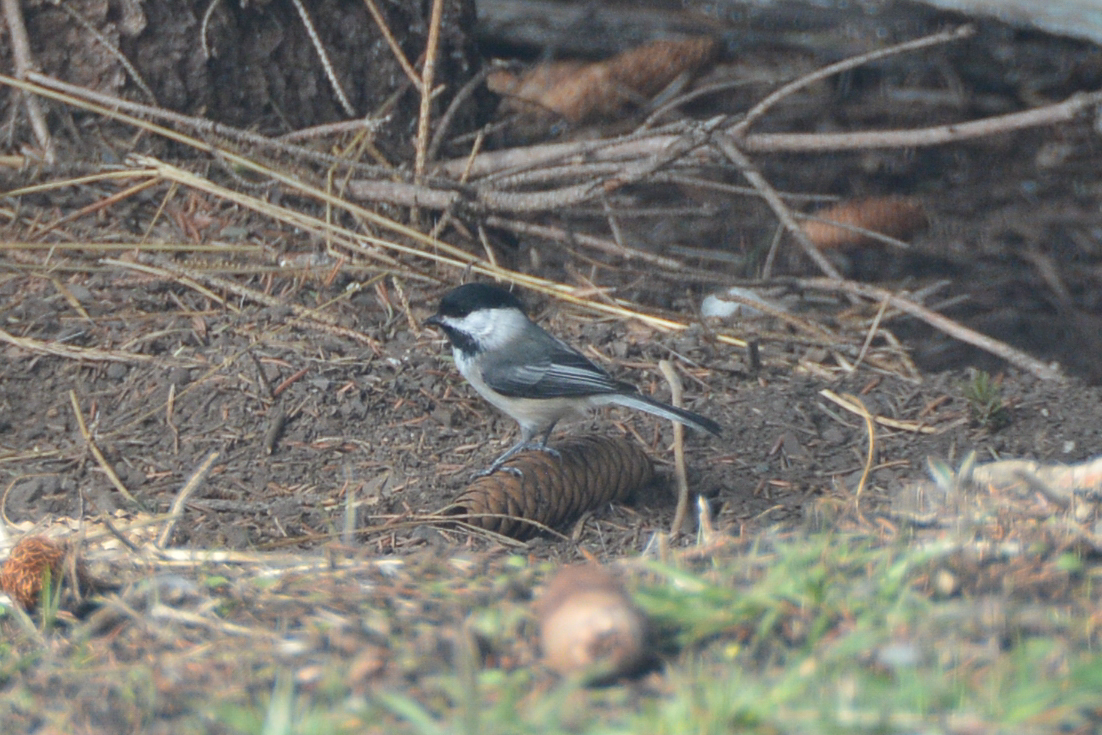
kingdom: Animalia
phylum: Chordata
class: Aves
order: Passeriformes
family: Paridae
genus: Poecile
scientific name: Poecile atricapillus
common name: Black-capped chickadee
